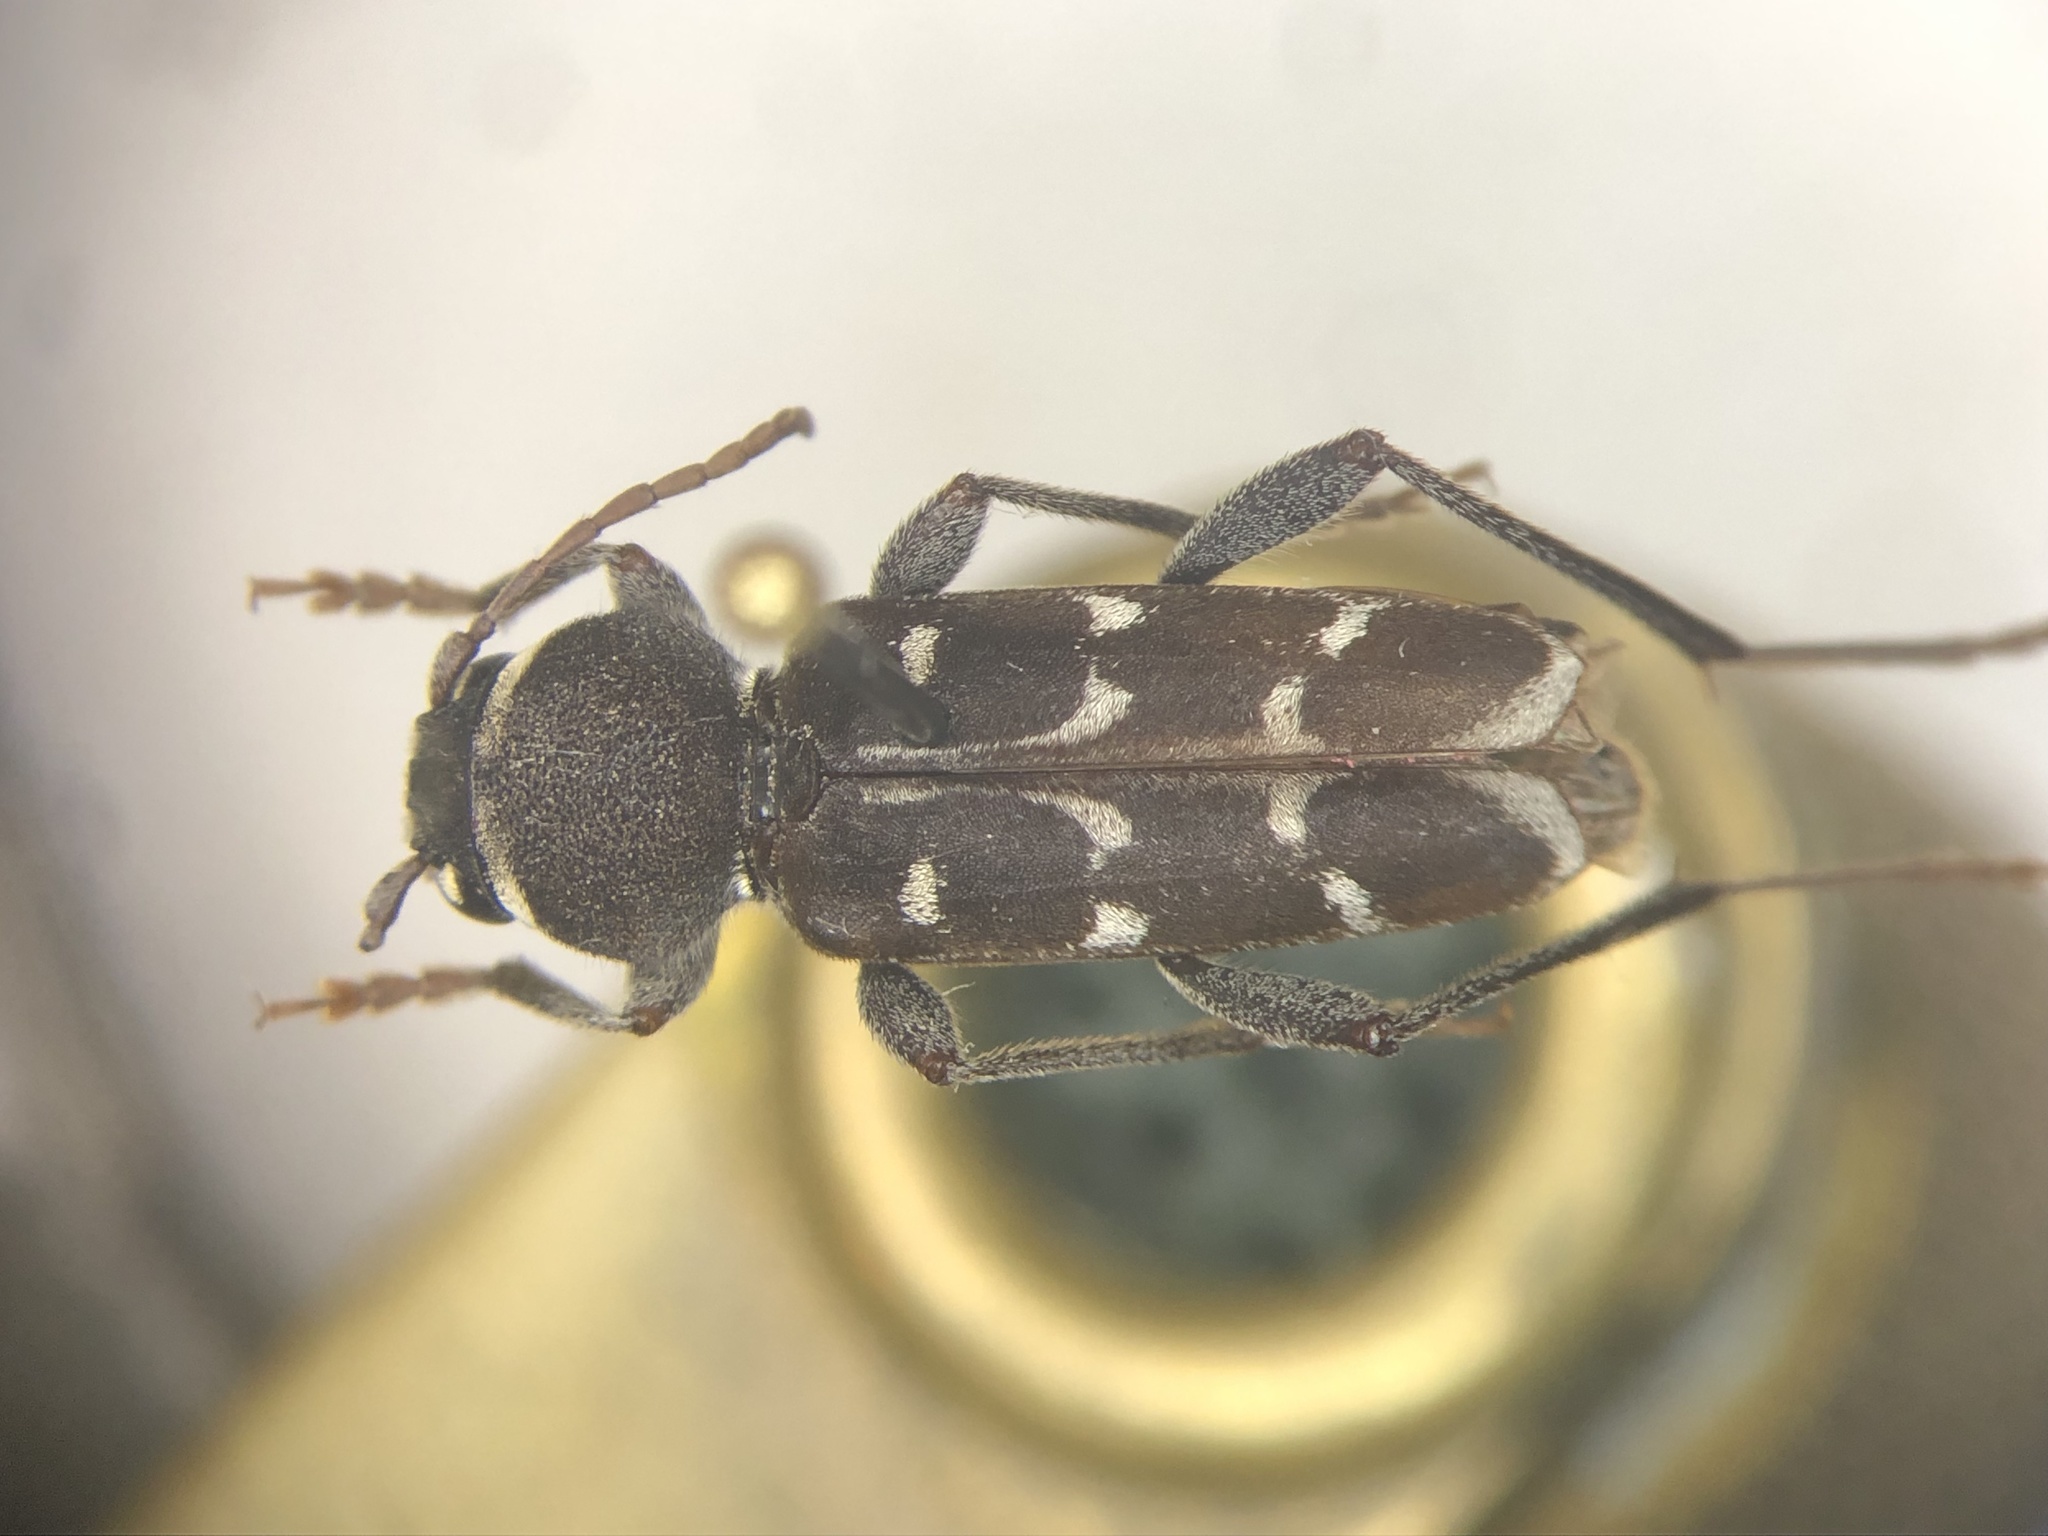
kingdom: Animalia
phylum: Arthropoda
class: Insecta
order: Coleoptera
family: Cerambycidae
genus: Xylotrechus
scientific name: Xylotrechus undulatus
